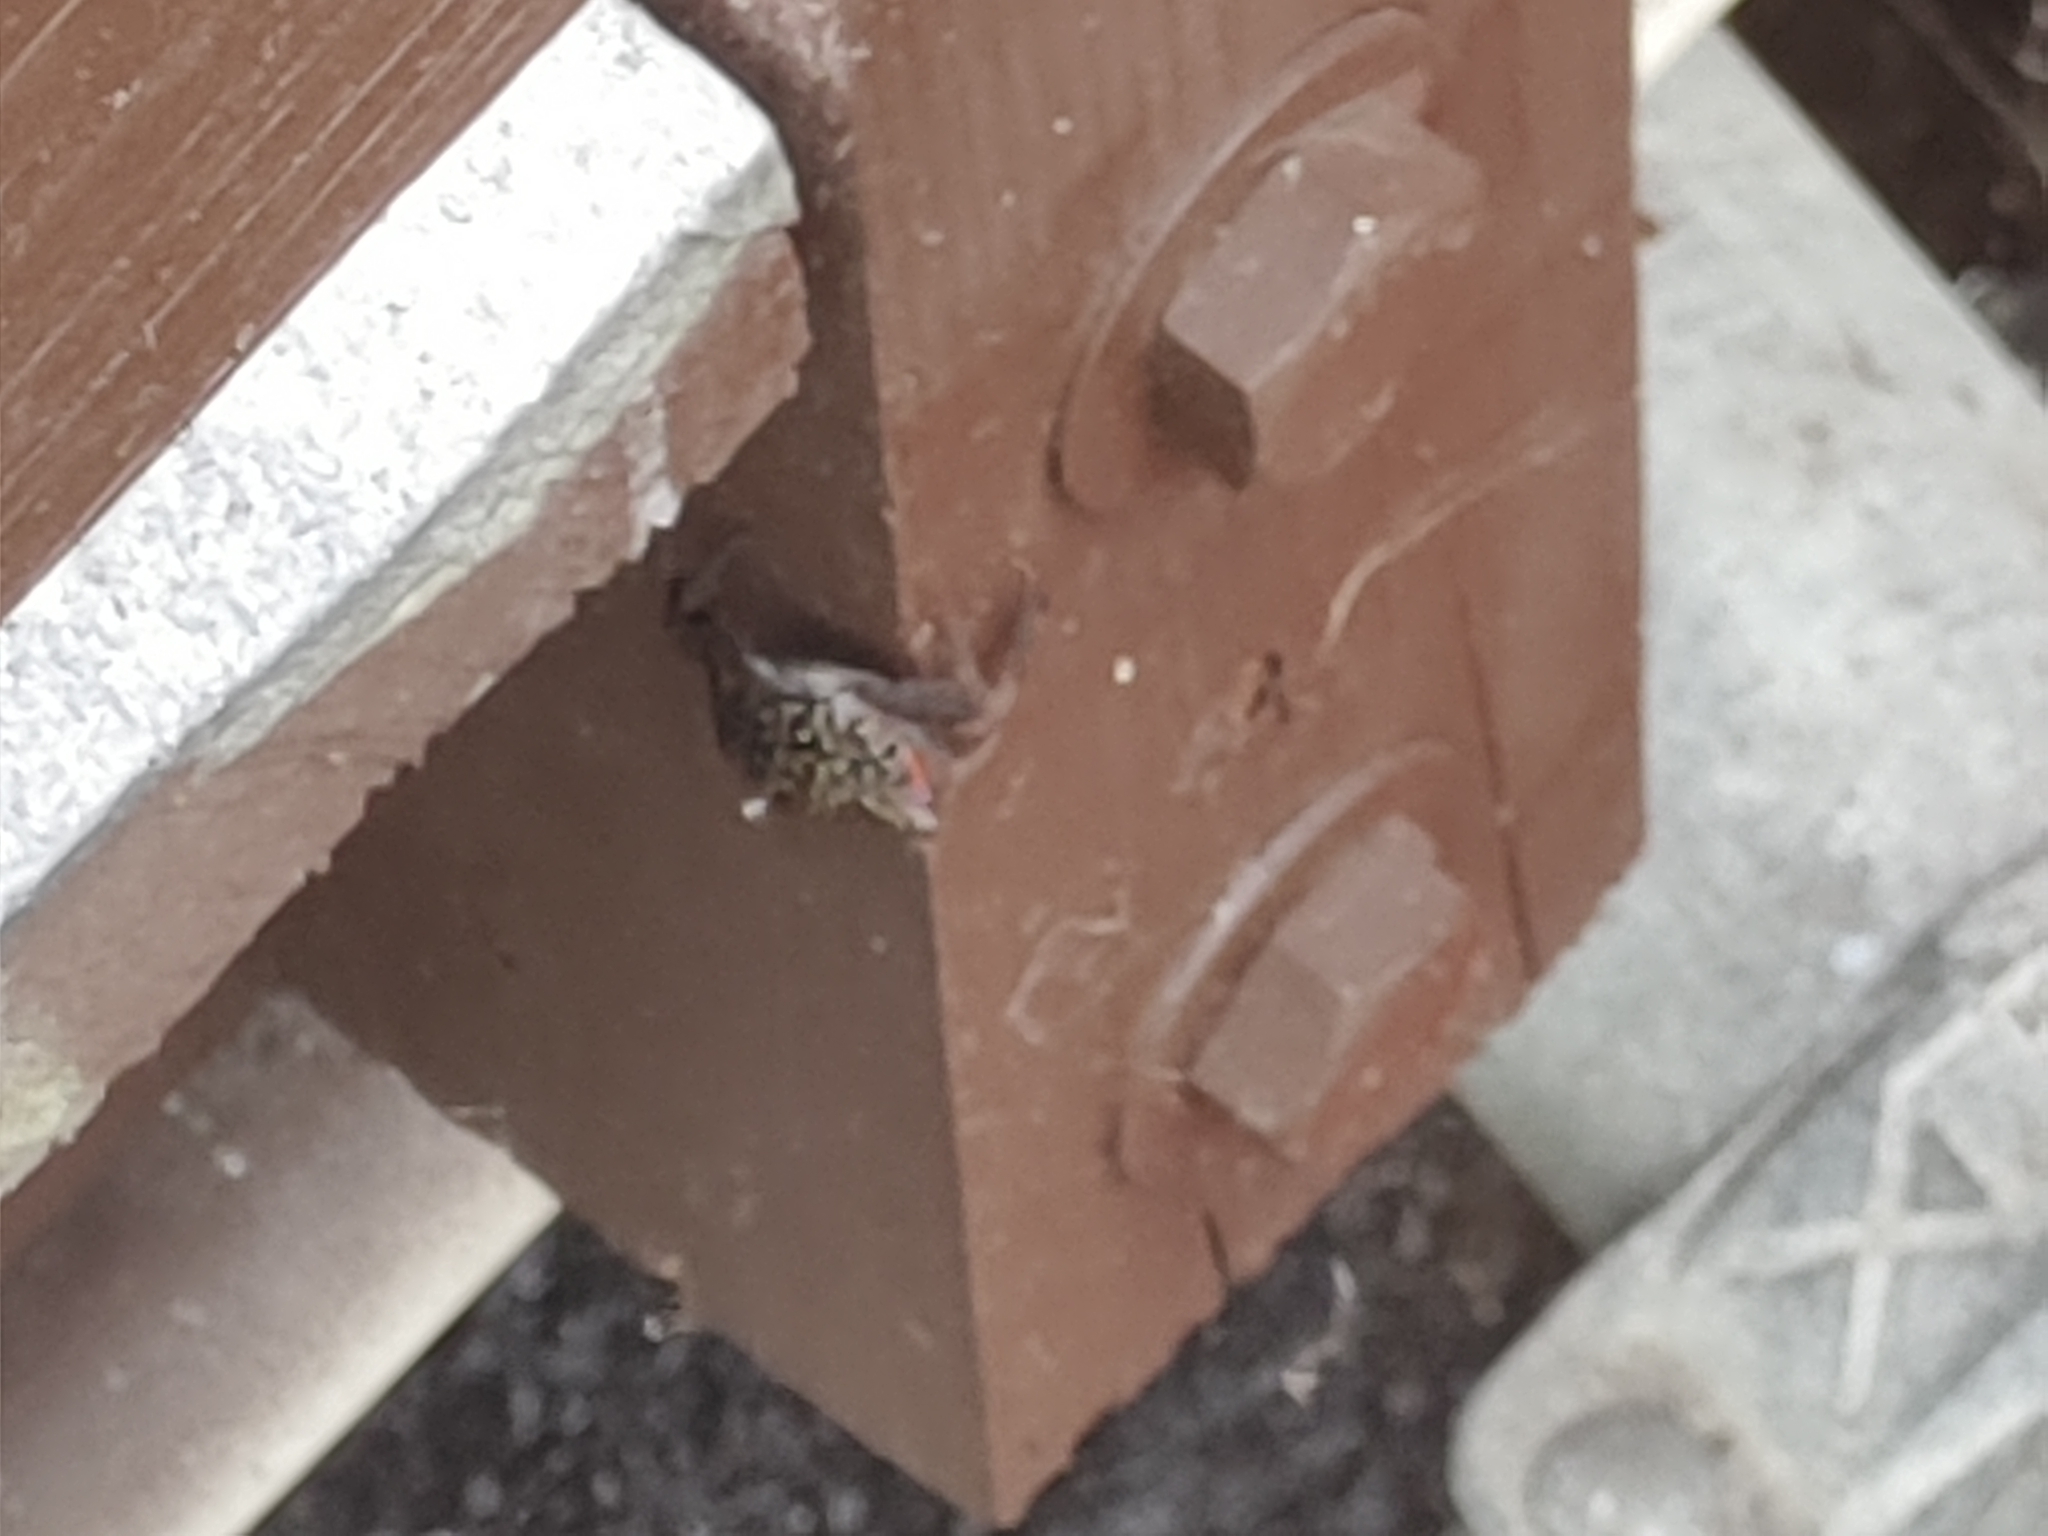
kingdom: Animalia
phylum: Arthropoda
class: Malacostraca
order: Decapoda
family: Sesarmidae
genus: Aratus
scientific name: Aratus pisonii
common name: Mangrove crab
